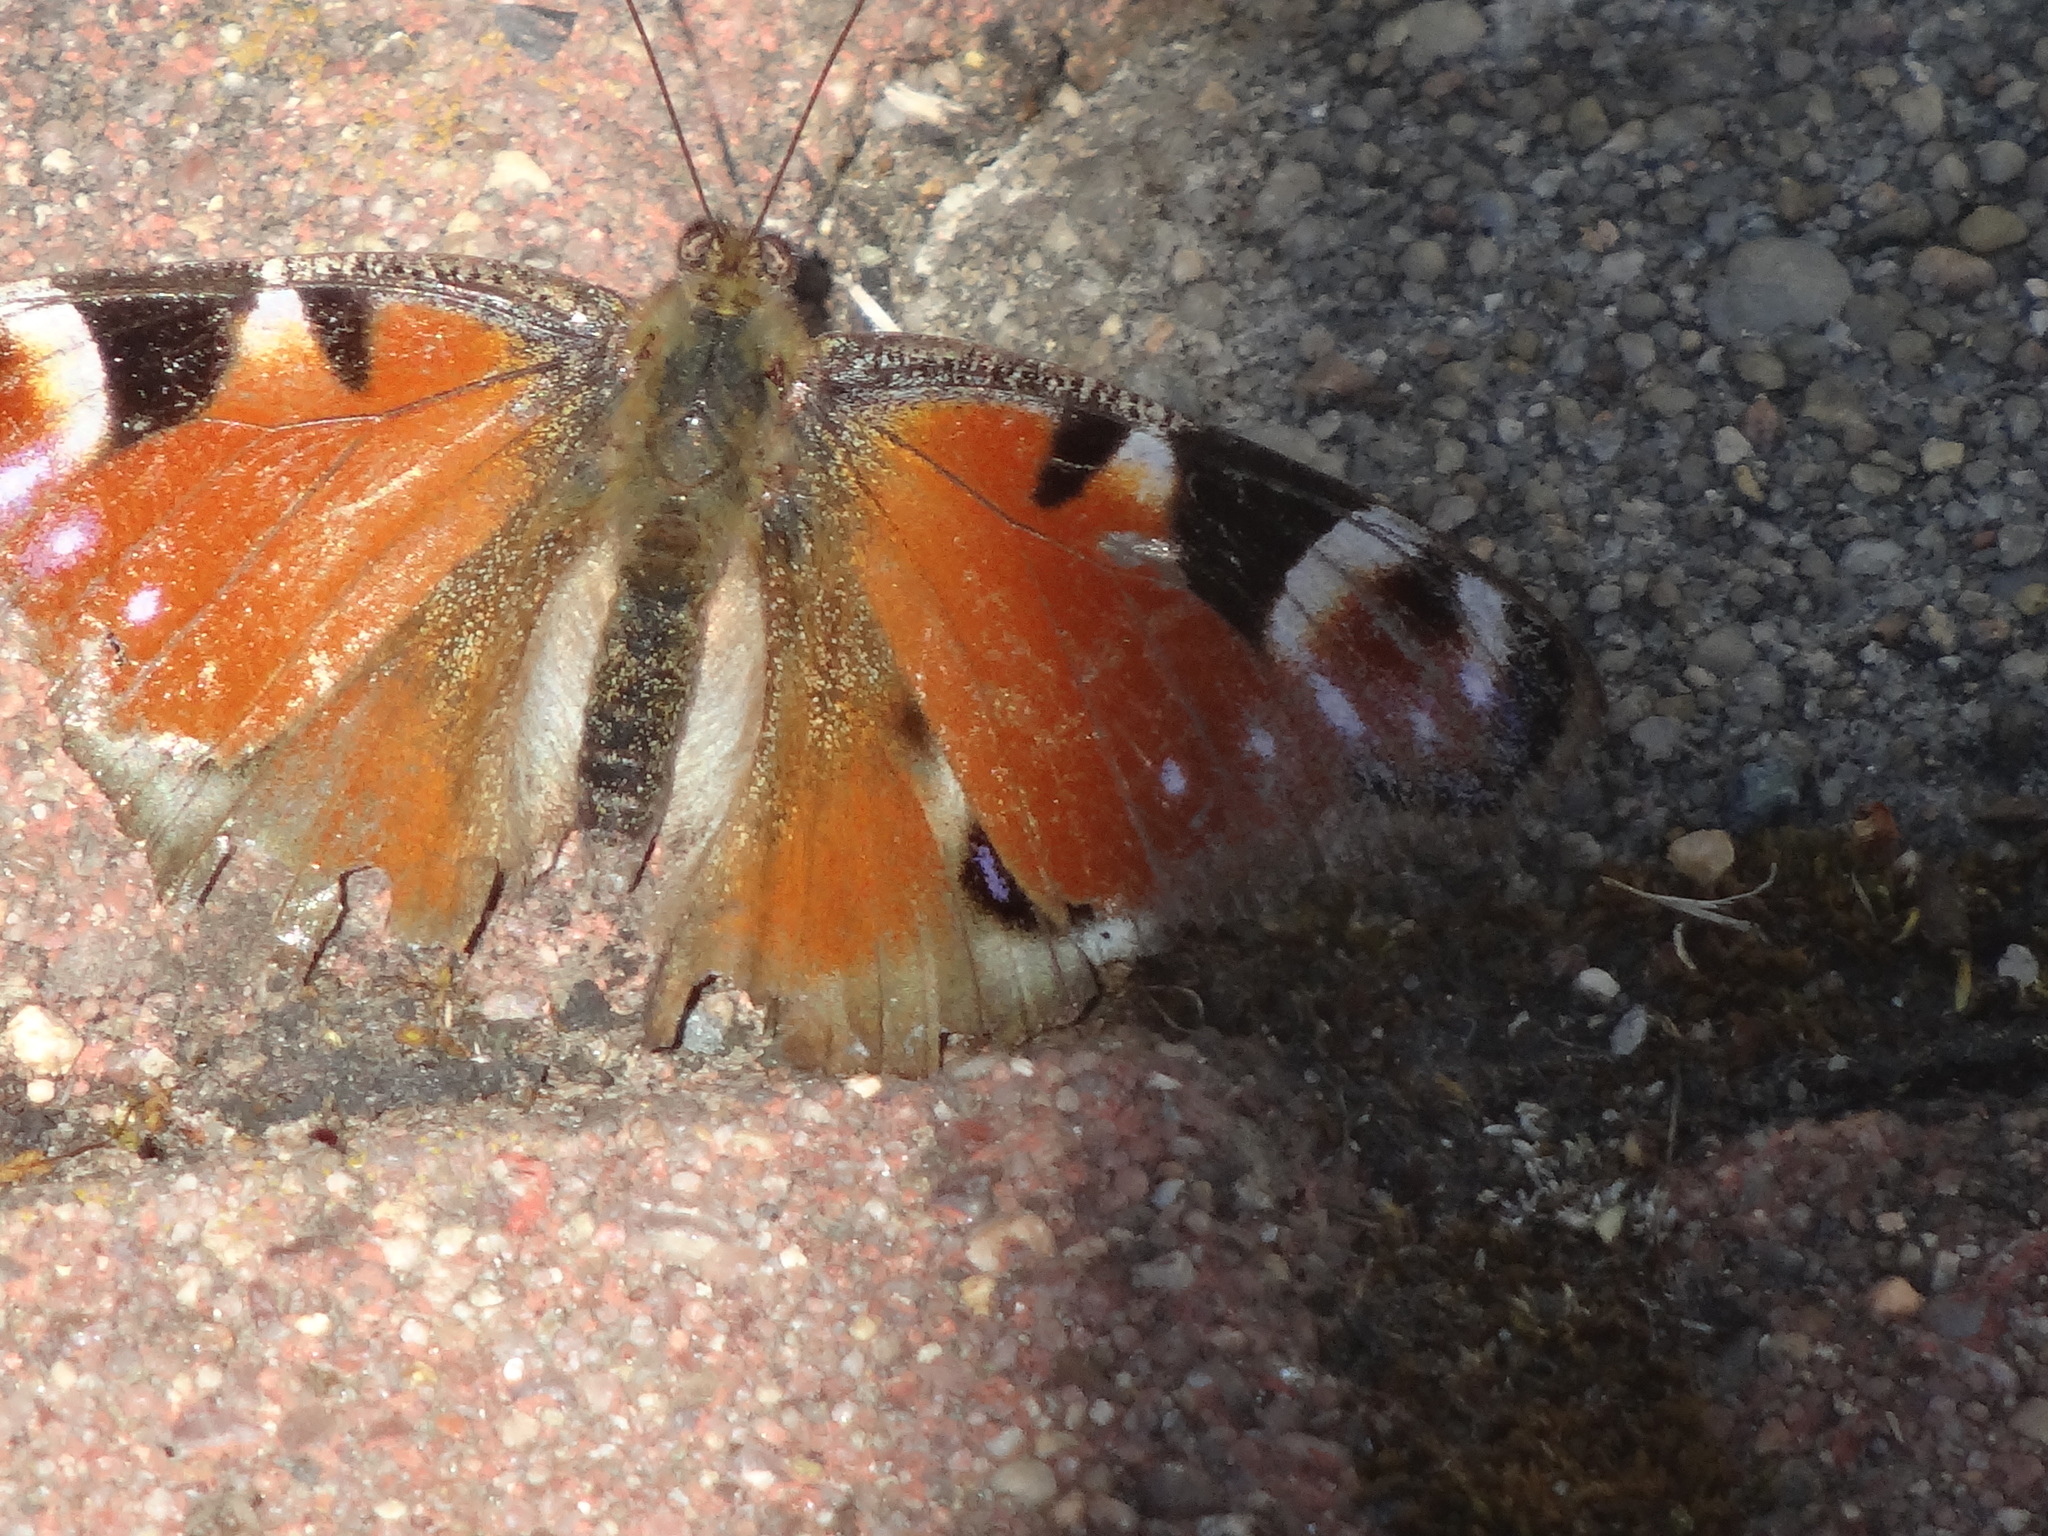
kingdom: Animalia
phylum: Arthropoda
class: Insecta
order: Lepidoptera
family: Nymphalidae
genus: Aglais
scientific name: Aglais io
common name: Peacock
